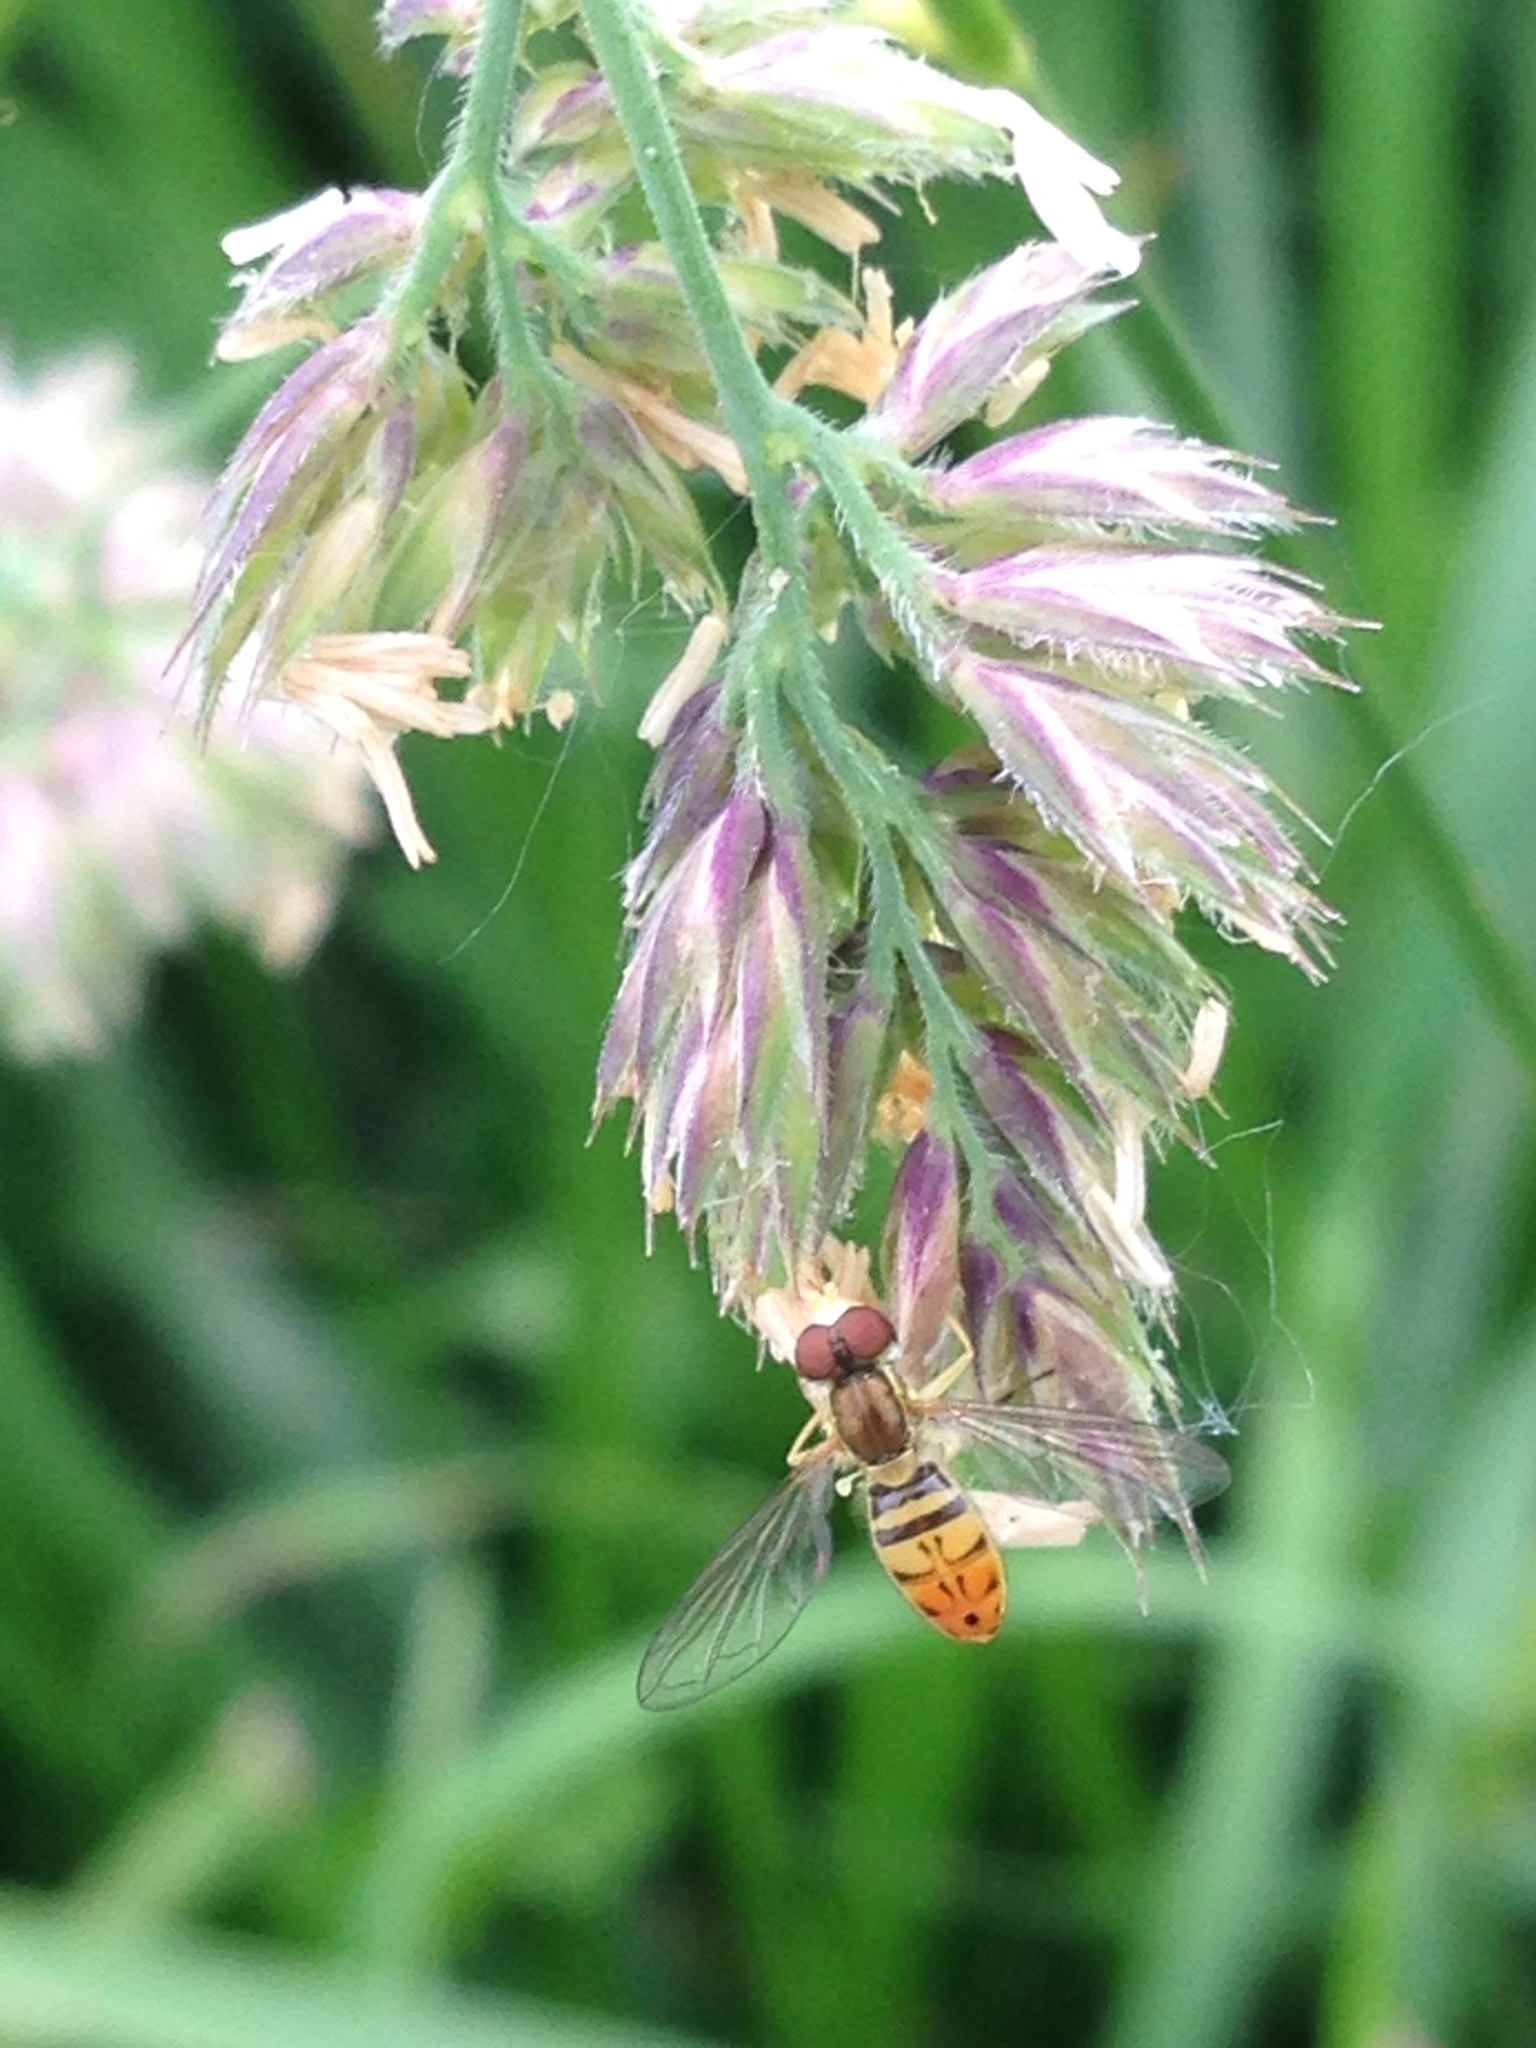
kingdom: Animalia
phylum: Arthropoda
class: Insecta
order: Diptera
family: Syrphidae
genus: Toxomerus
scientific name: Toxomerus marginatus
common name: Syrphid fly
